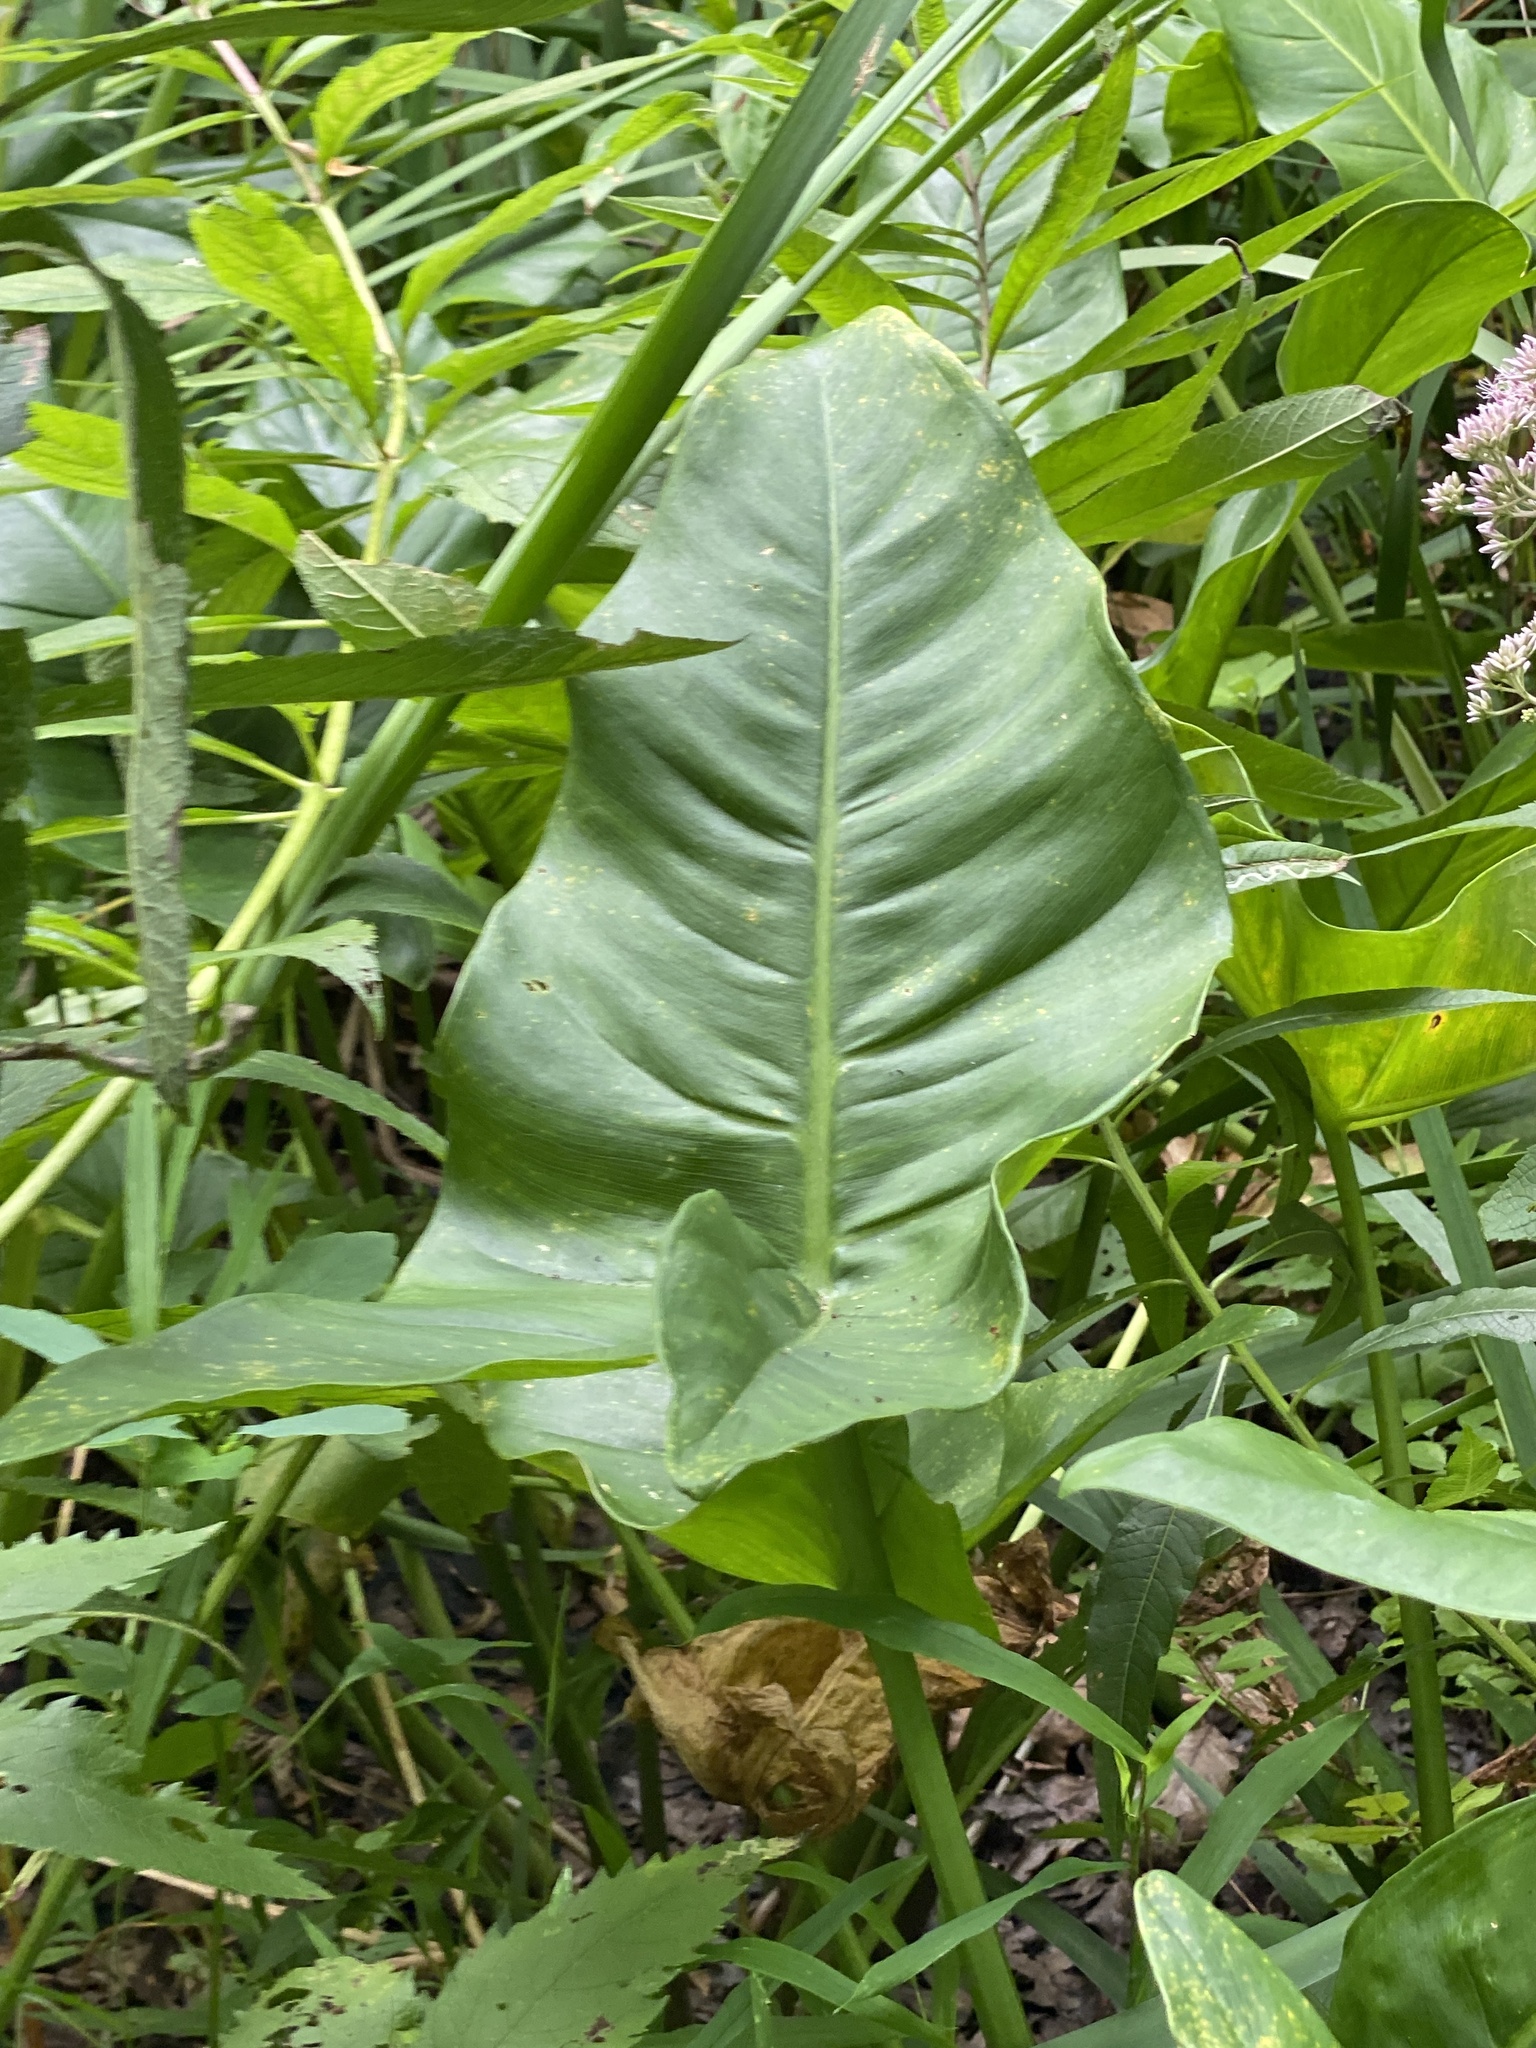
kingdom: Plantae
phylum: Tracheophyta
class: Liliopsida
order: Alismatales
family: Araceae
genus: Peltandra
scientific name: Peltandra virginica
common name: Arrow arum
